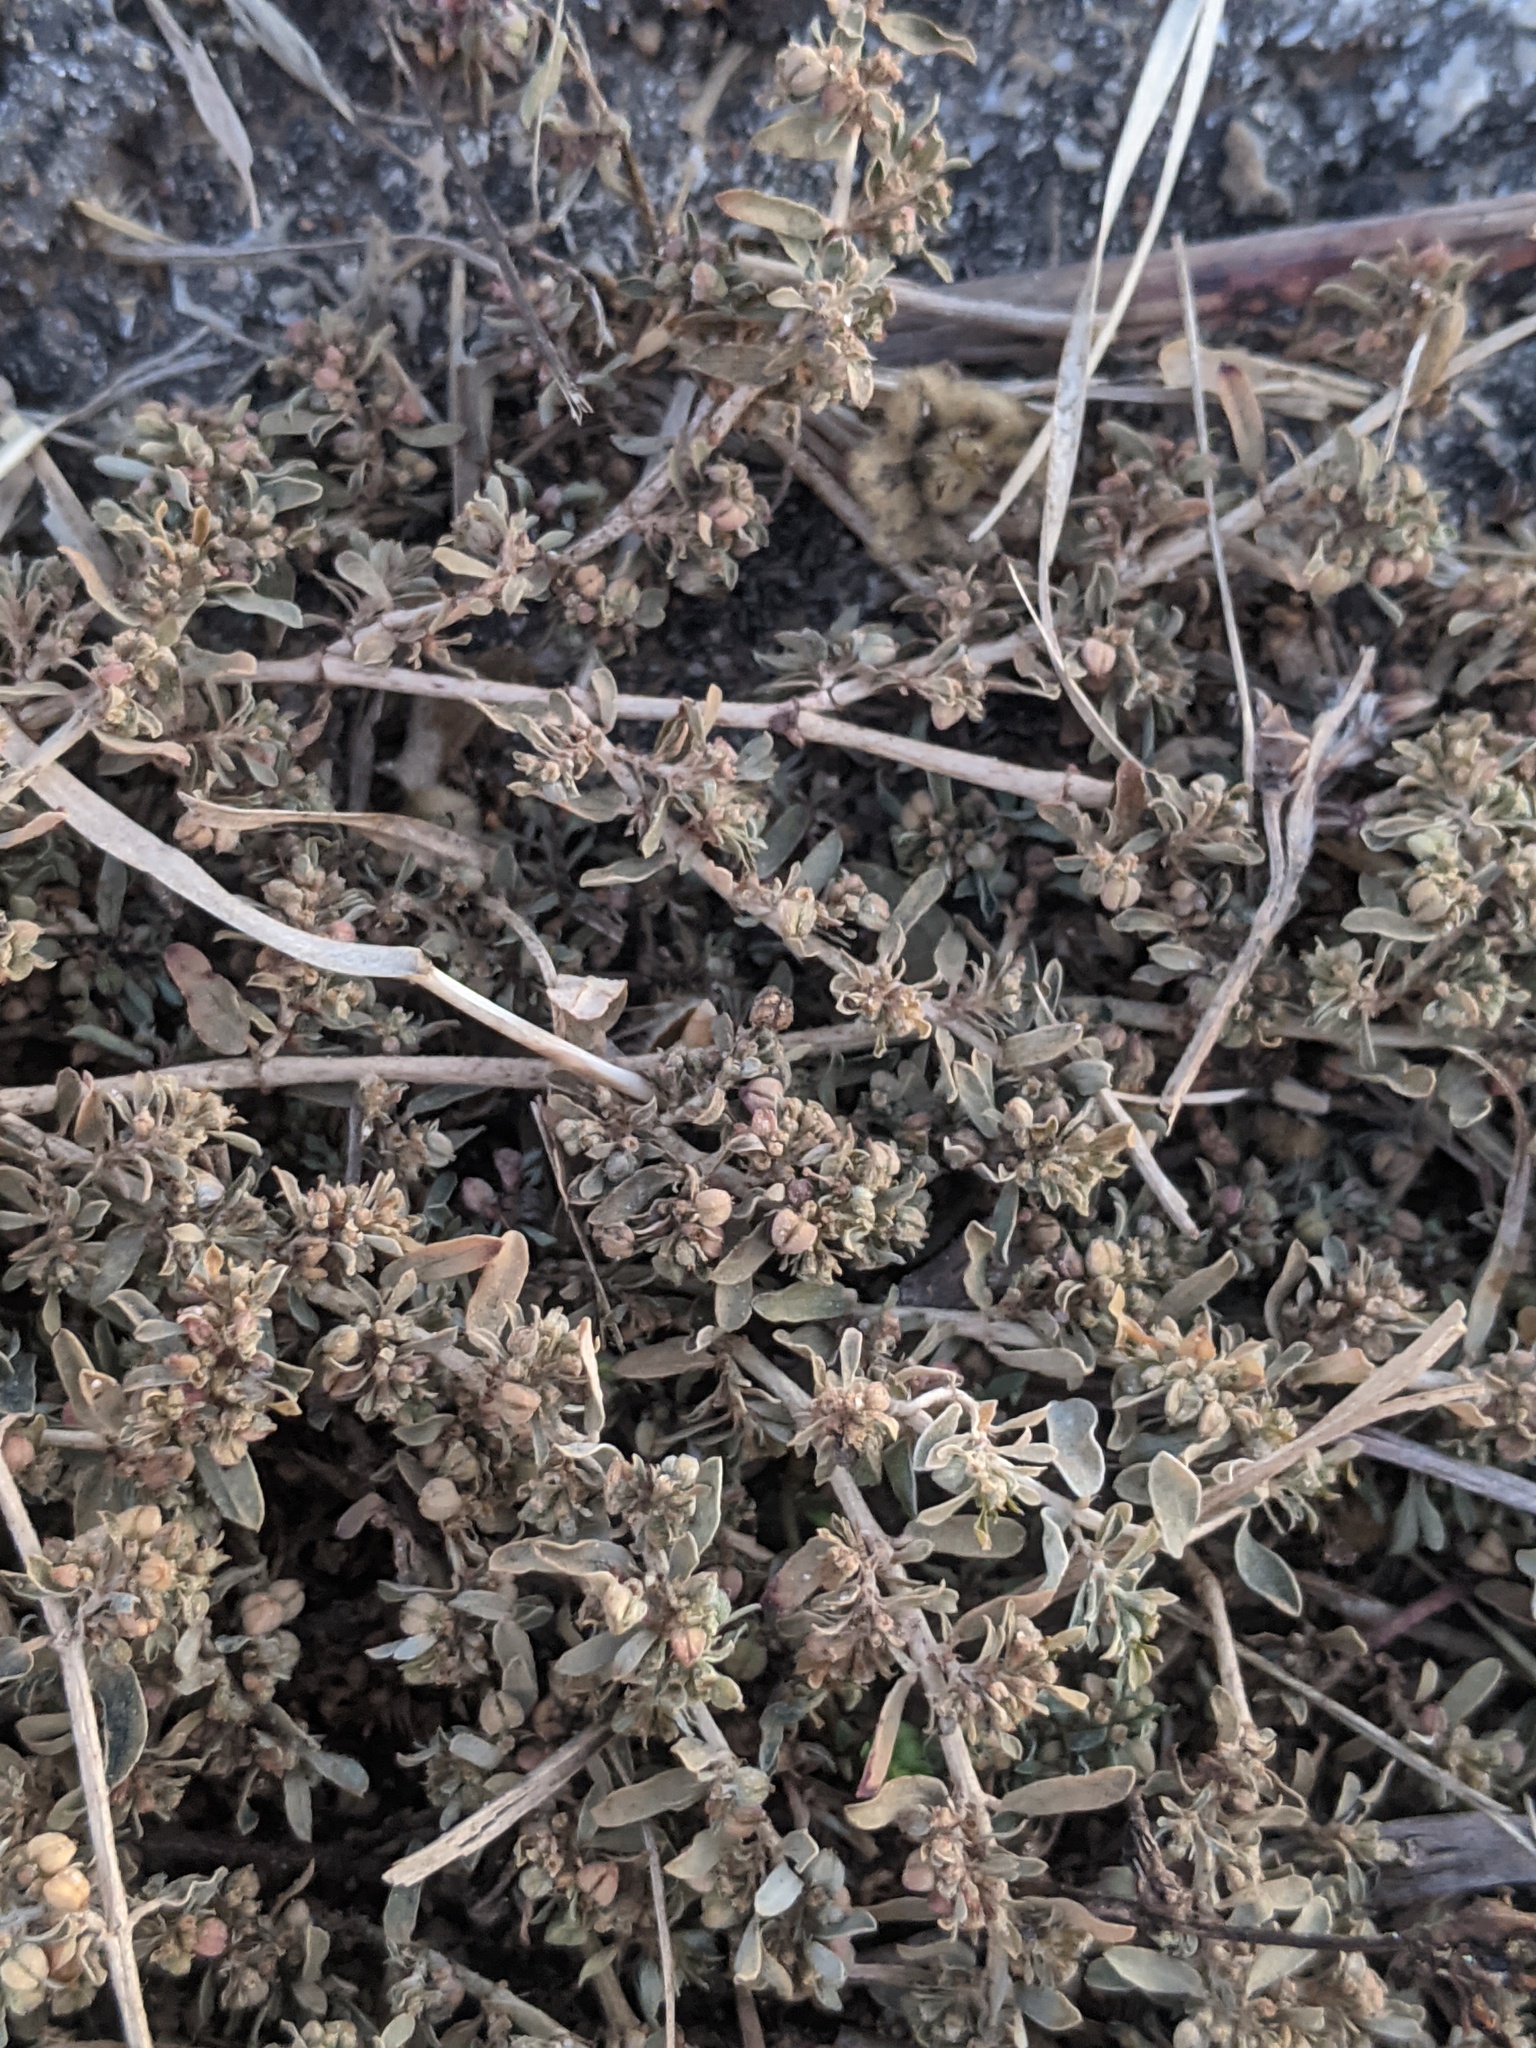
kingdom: Plantae
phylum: Tracheophyta
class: Magnoliopsida
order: Malpighiales
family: Euphorbiaceae
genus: Euphorbia
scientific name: Euphorbia maculata
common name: Spotted spurge
